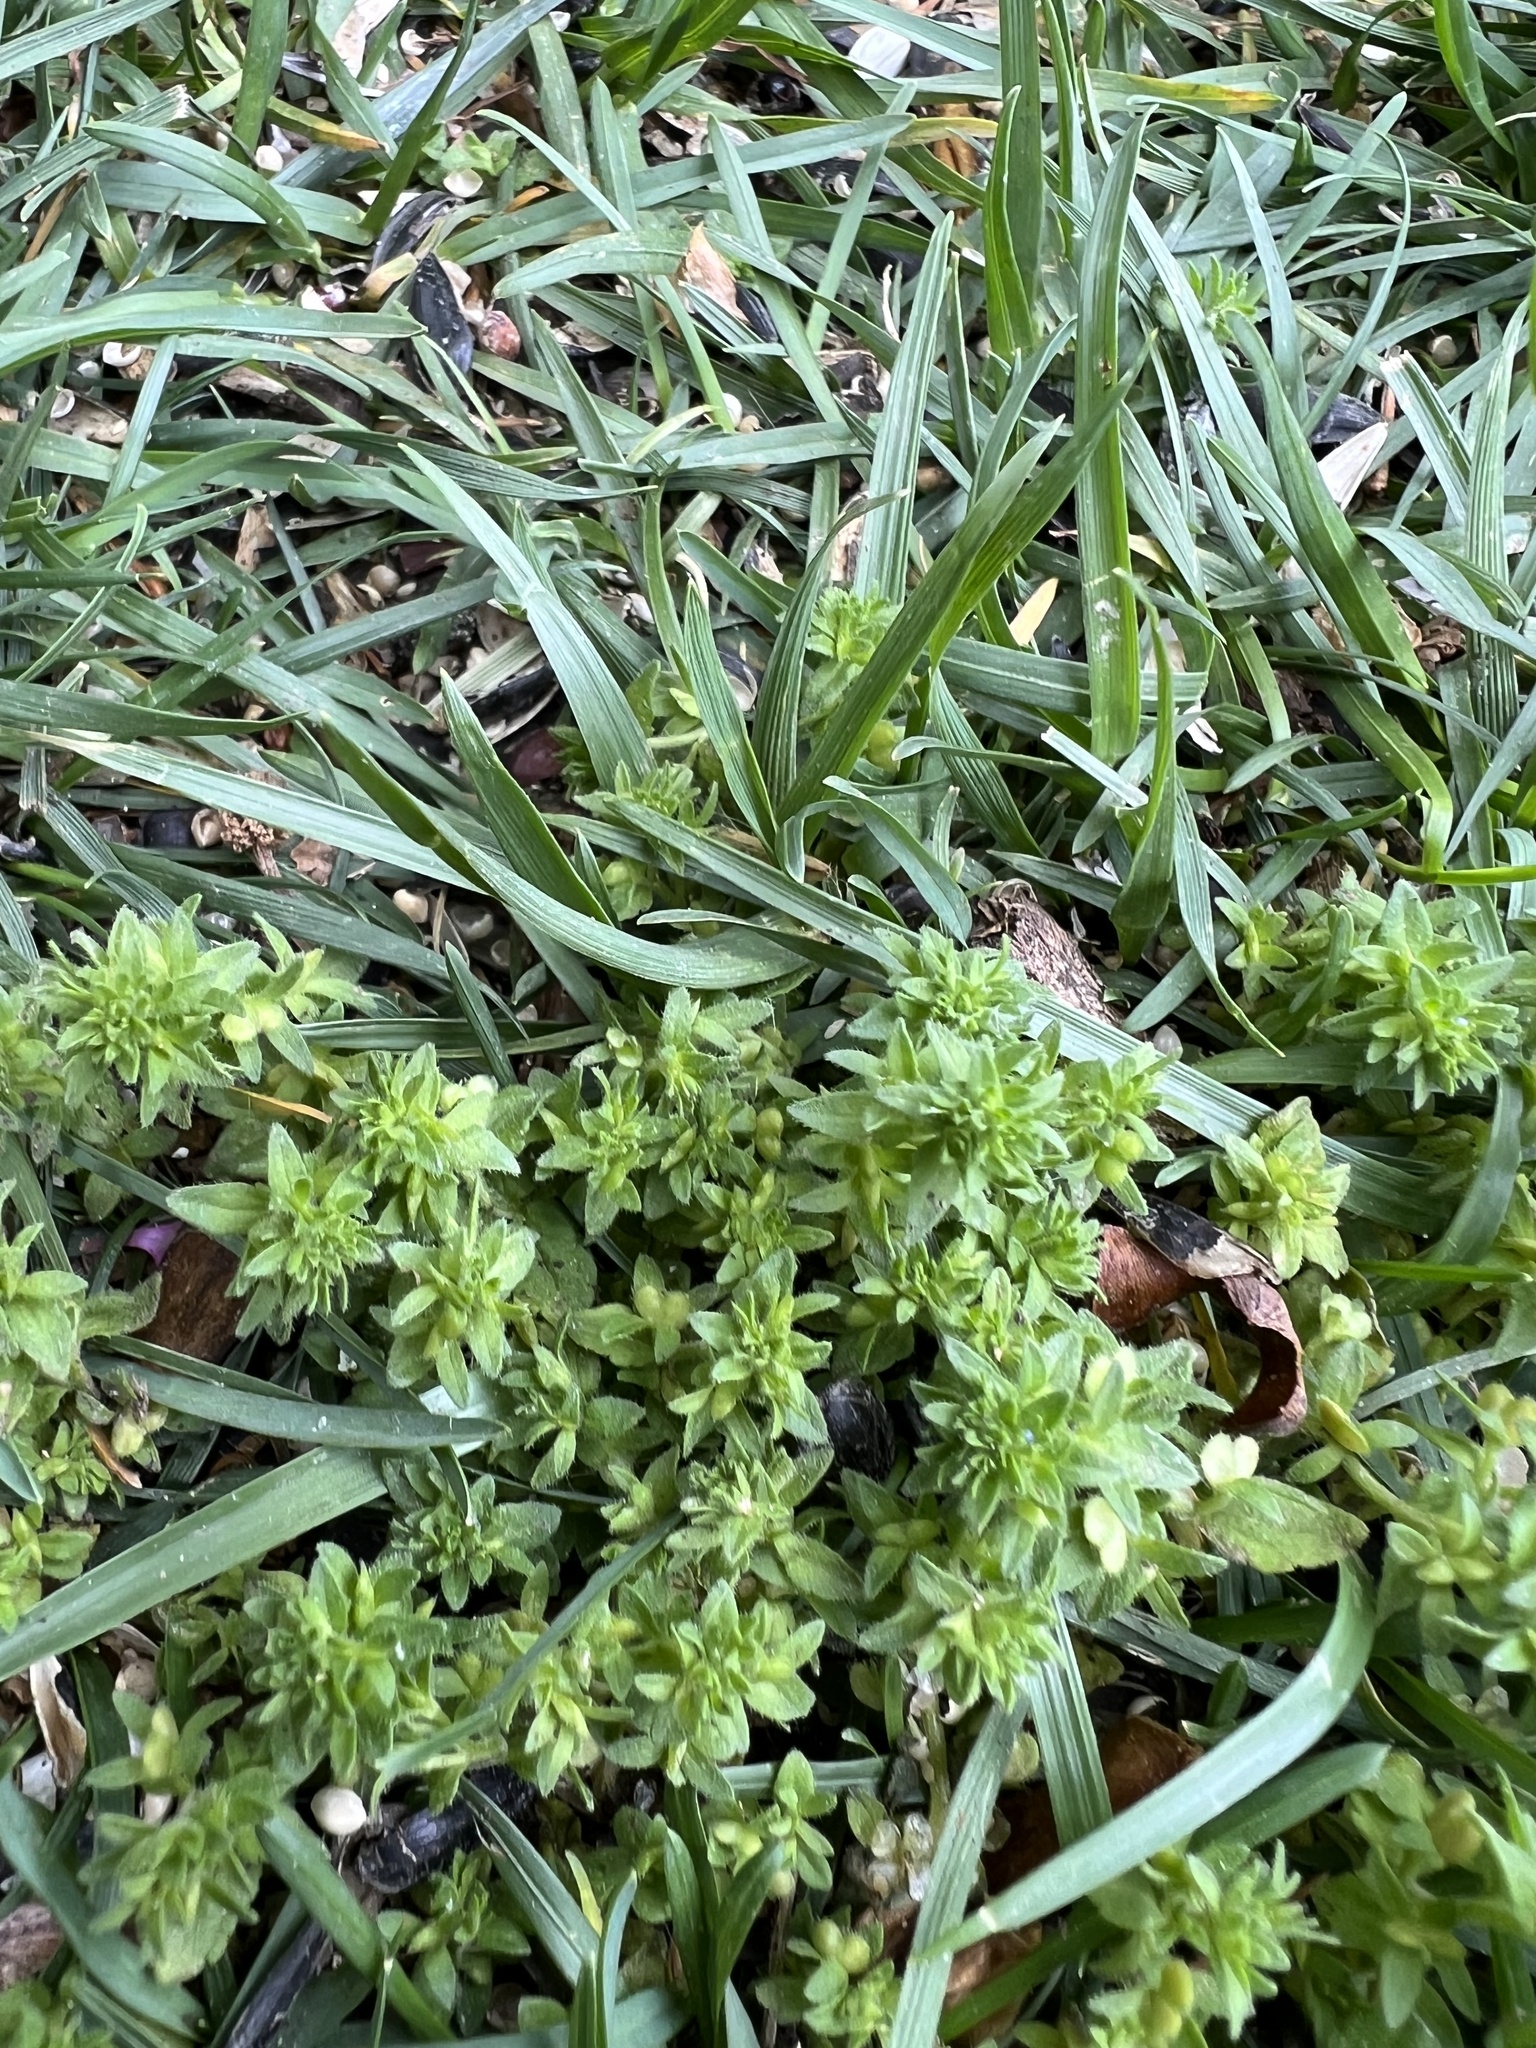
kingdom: Plantae
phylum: Tracheophyta
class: Magnoliopsida
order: Lamiales
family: Plantaginaceae
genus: Veronica
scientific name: Veronica arvensis
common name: Corn speedwell
